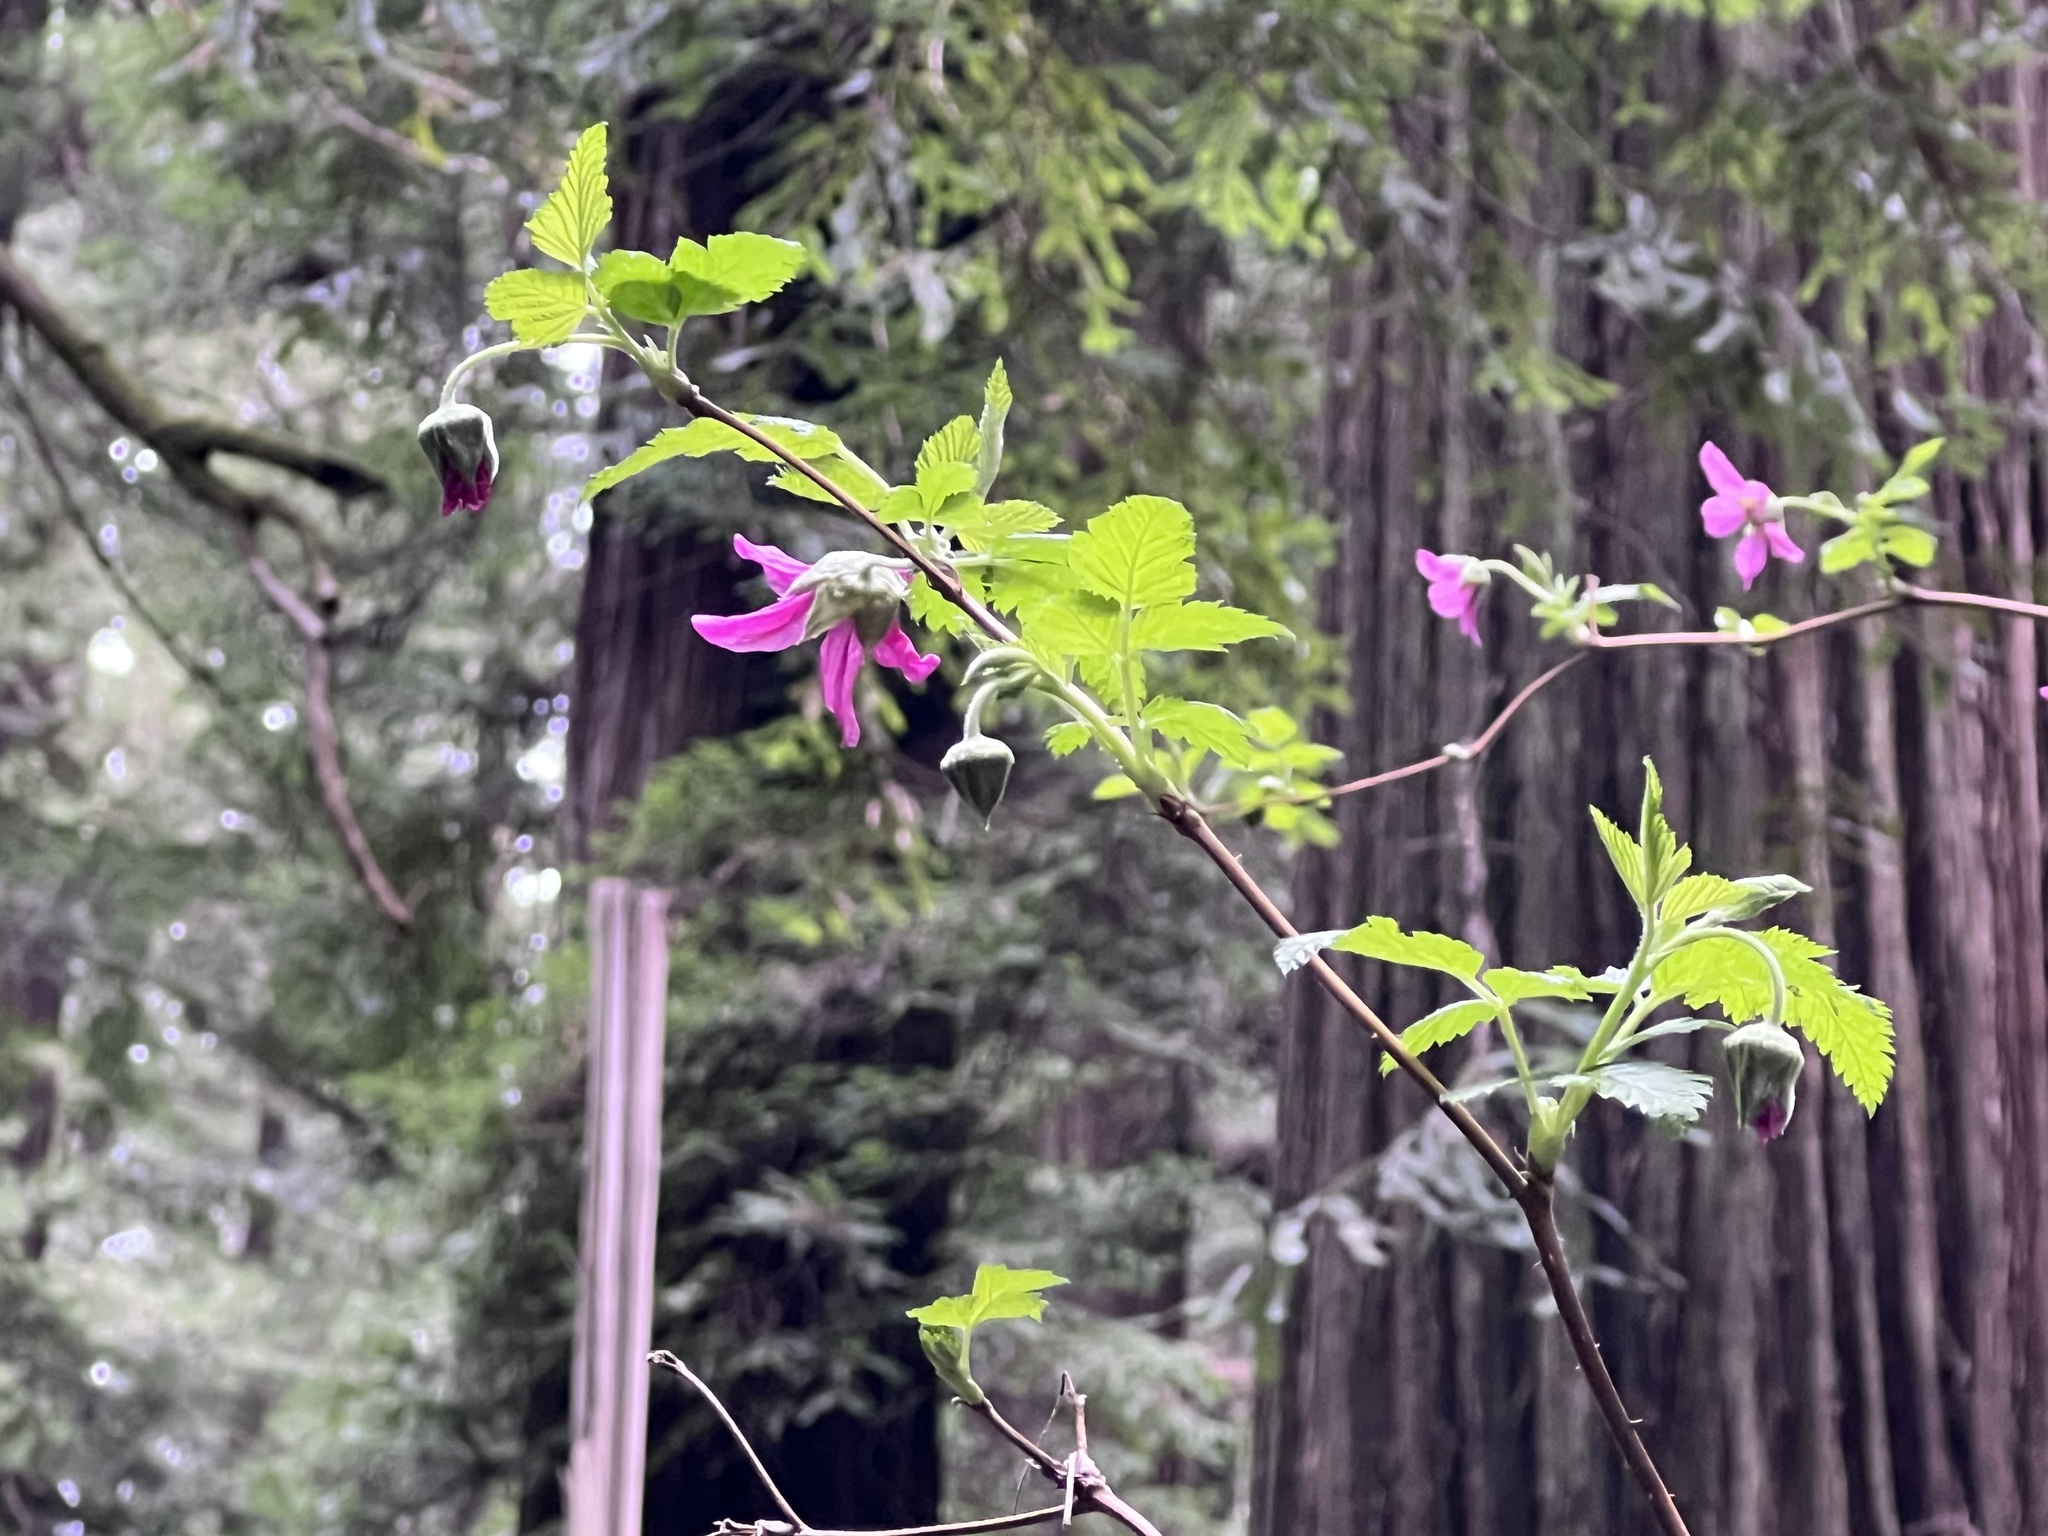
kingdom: Plantae
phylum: Tracheophyta
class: Magnoliopsida
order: Rosales
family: Rosaceae
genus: Rubus
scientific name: Rubus spectabilis
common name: Salmonberry
